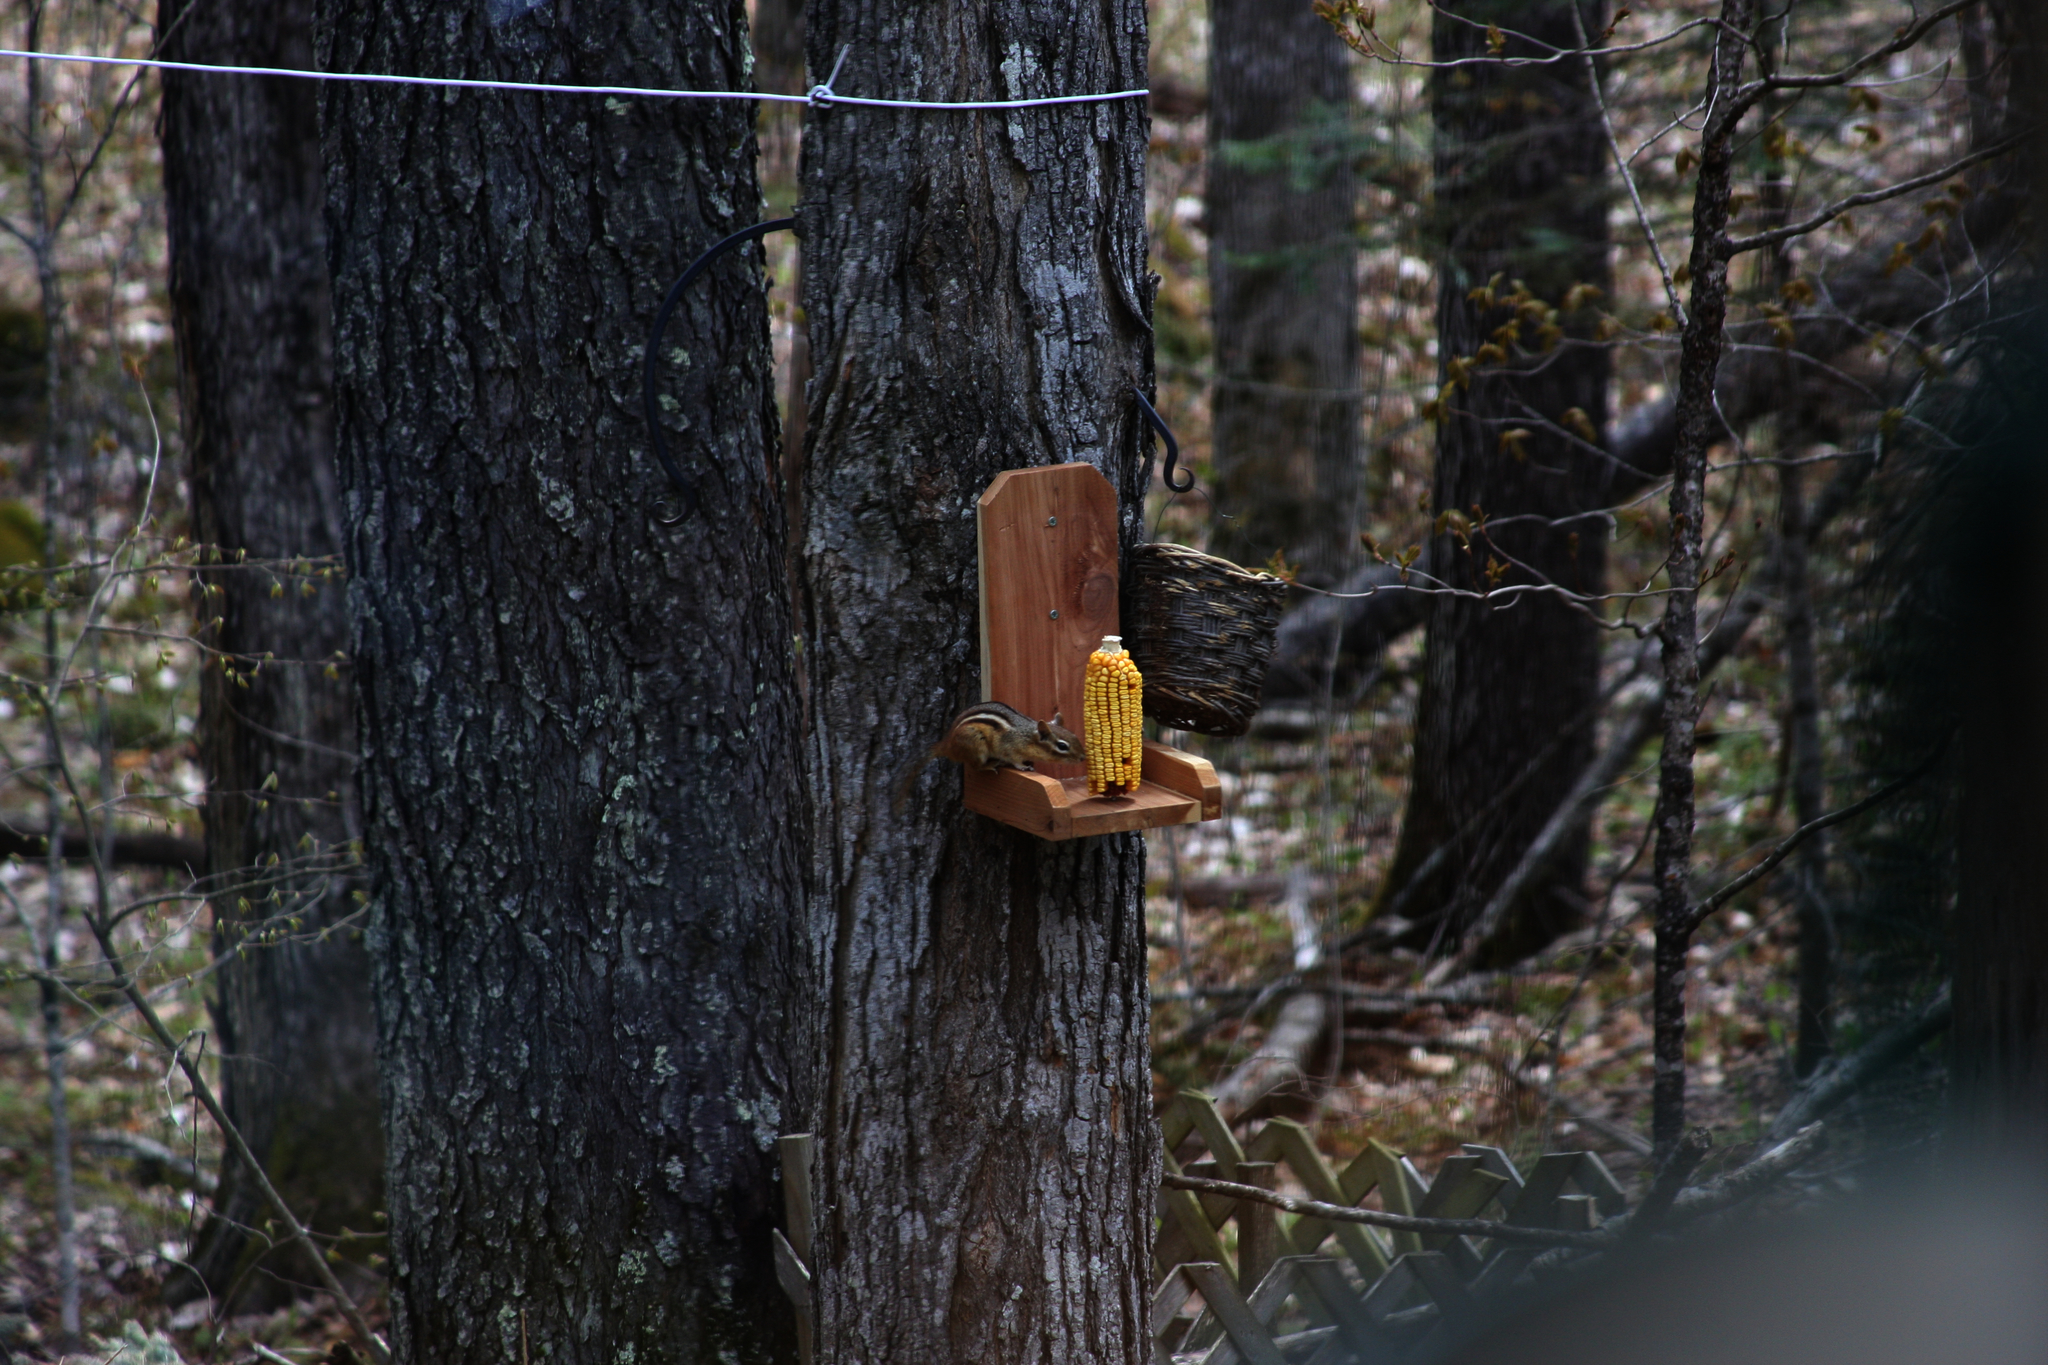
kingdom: Animalia
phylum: Chordata
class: Mammalia
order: Rodentia
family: Sciuridae
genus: Tamias
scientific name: Tamias striatus
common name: Eastern chipmunk
